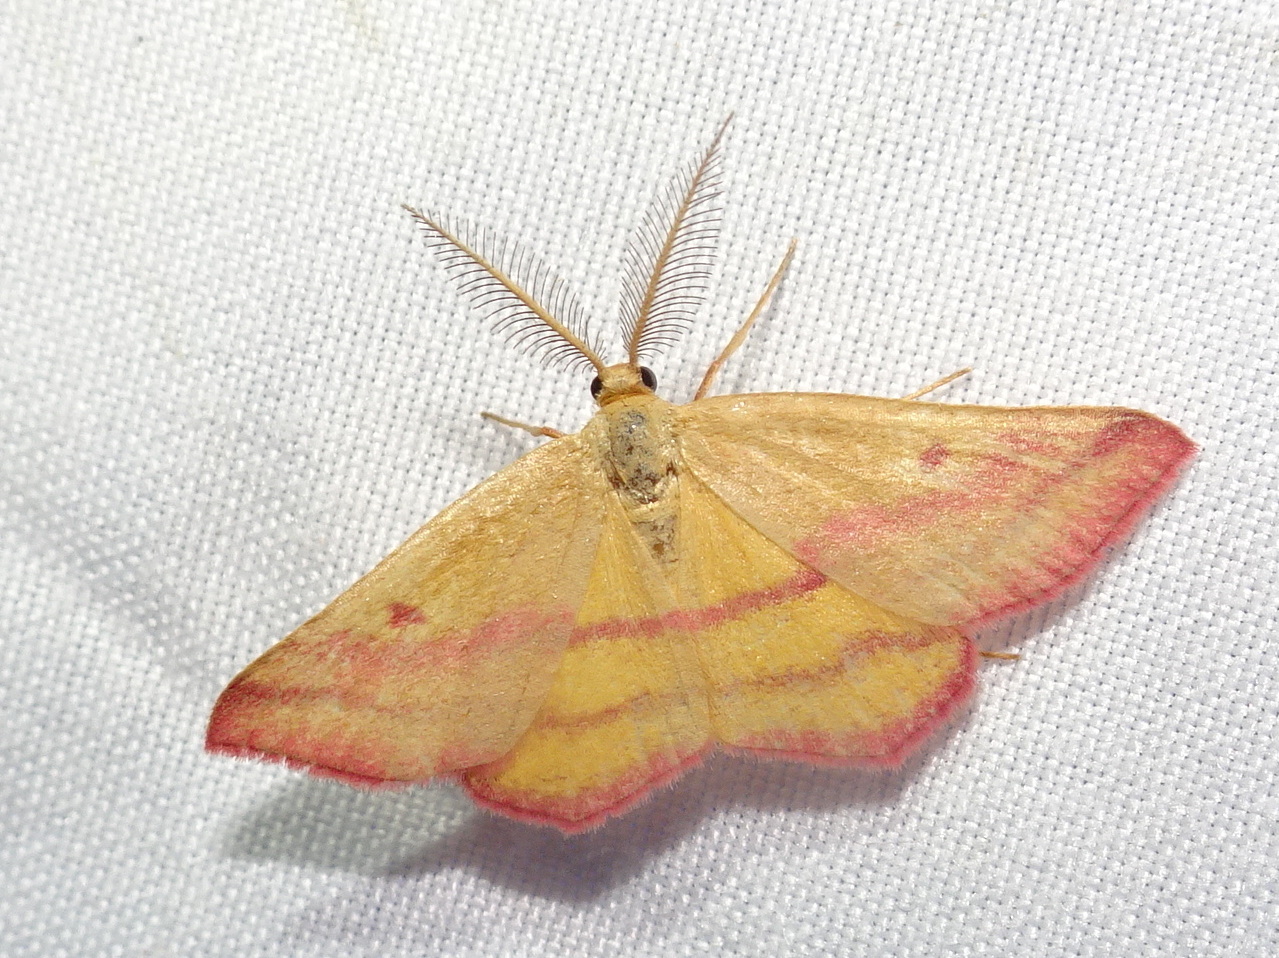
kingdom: Animalia
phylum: Arthropoda
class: Insecta
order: Lepidoptera
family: Geometridae
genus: Haematopis
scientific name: Haematopis grataria
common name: Chickweed geometer
